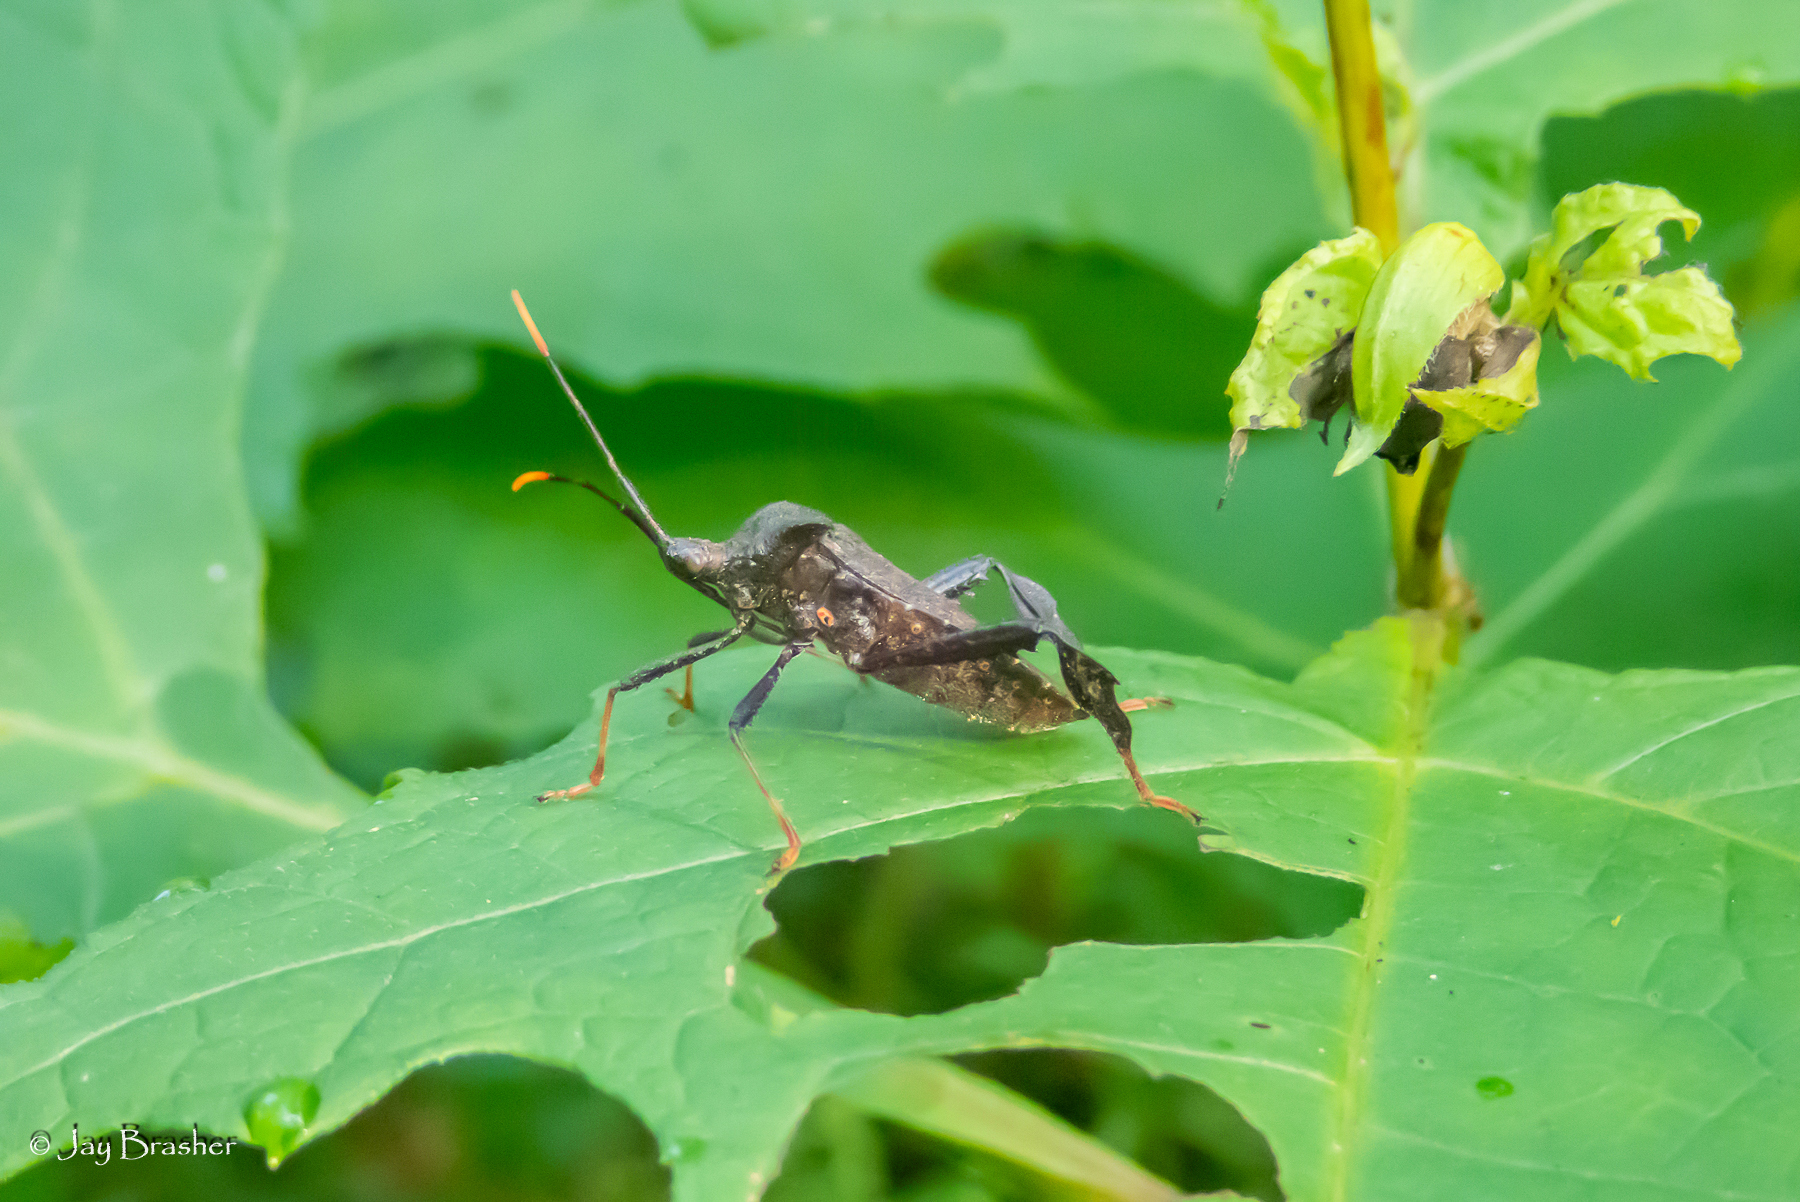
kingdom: Animalia
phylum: Arthropoda
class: Insecta
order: Hemiptera
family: Coreidae
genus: Acanthocephala
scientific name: Acanthocephala terminalis
